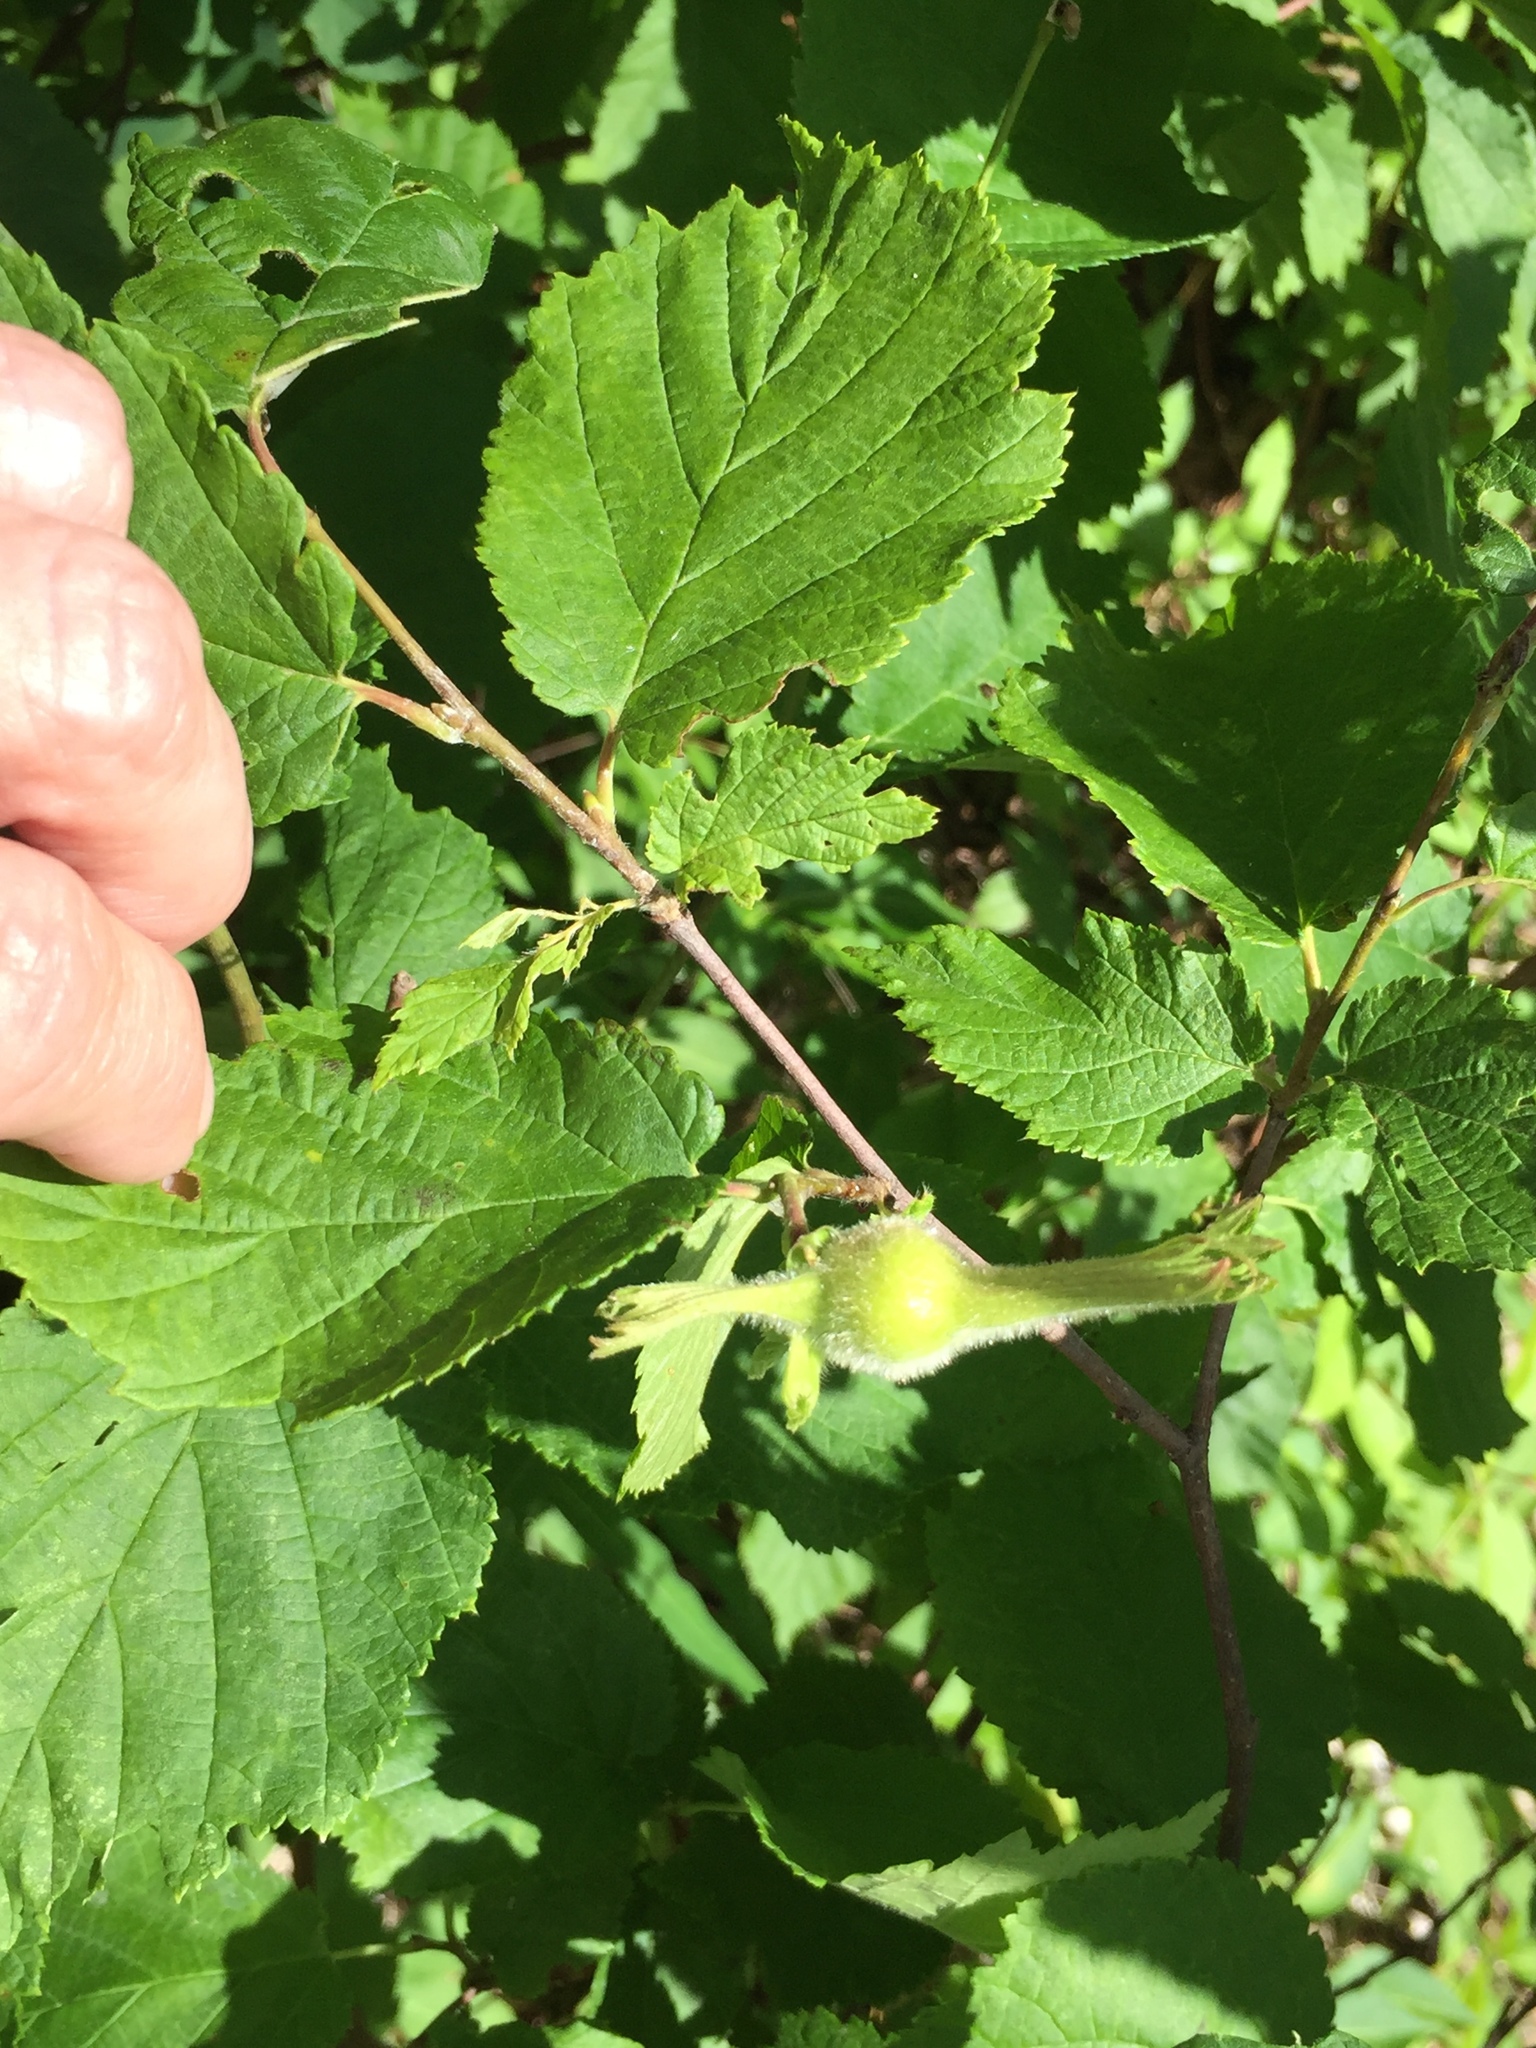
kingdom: Plantae
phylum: Tracheophyta
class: Magnoliopsida
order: Fagales
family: Betulaceae
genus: Corylus
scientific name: Corylus cornuta
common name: Beaked hazel
